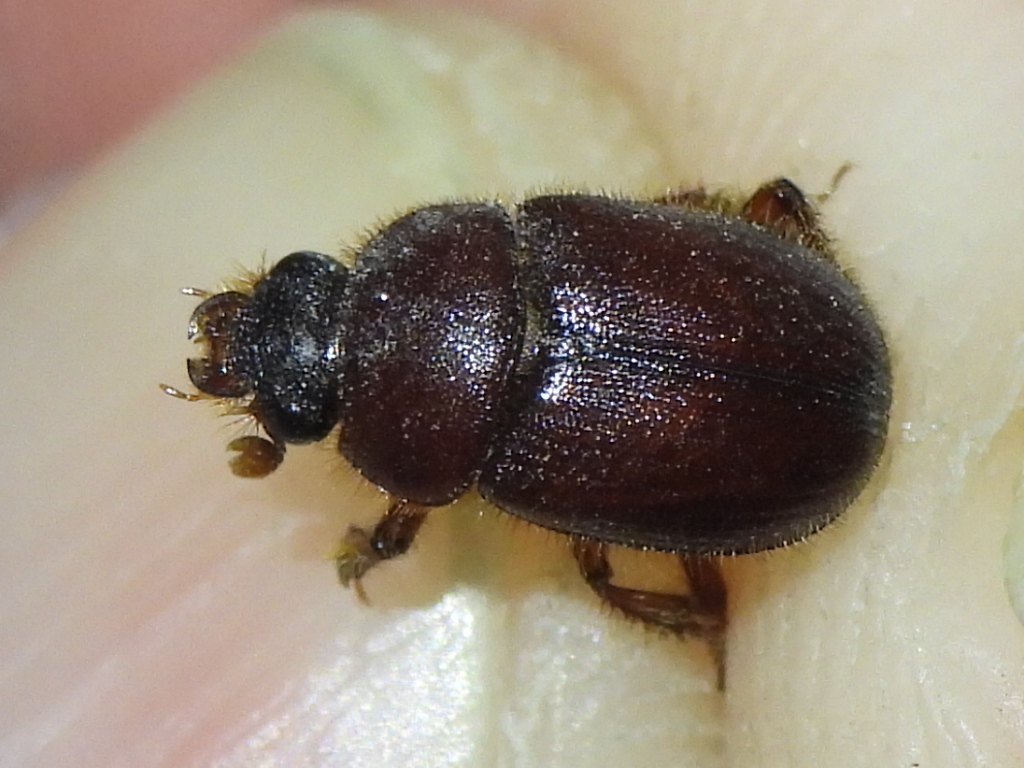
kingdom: Animalia
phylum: Arthropoda
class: Insecta
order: Coleoptera
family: Ochodaeidae
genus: Parochodaeus
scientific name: Parochodaeus pectoralis
